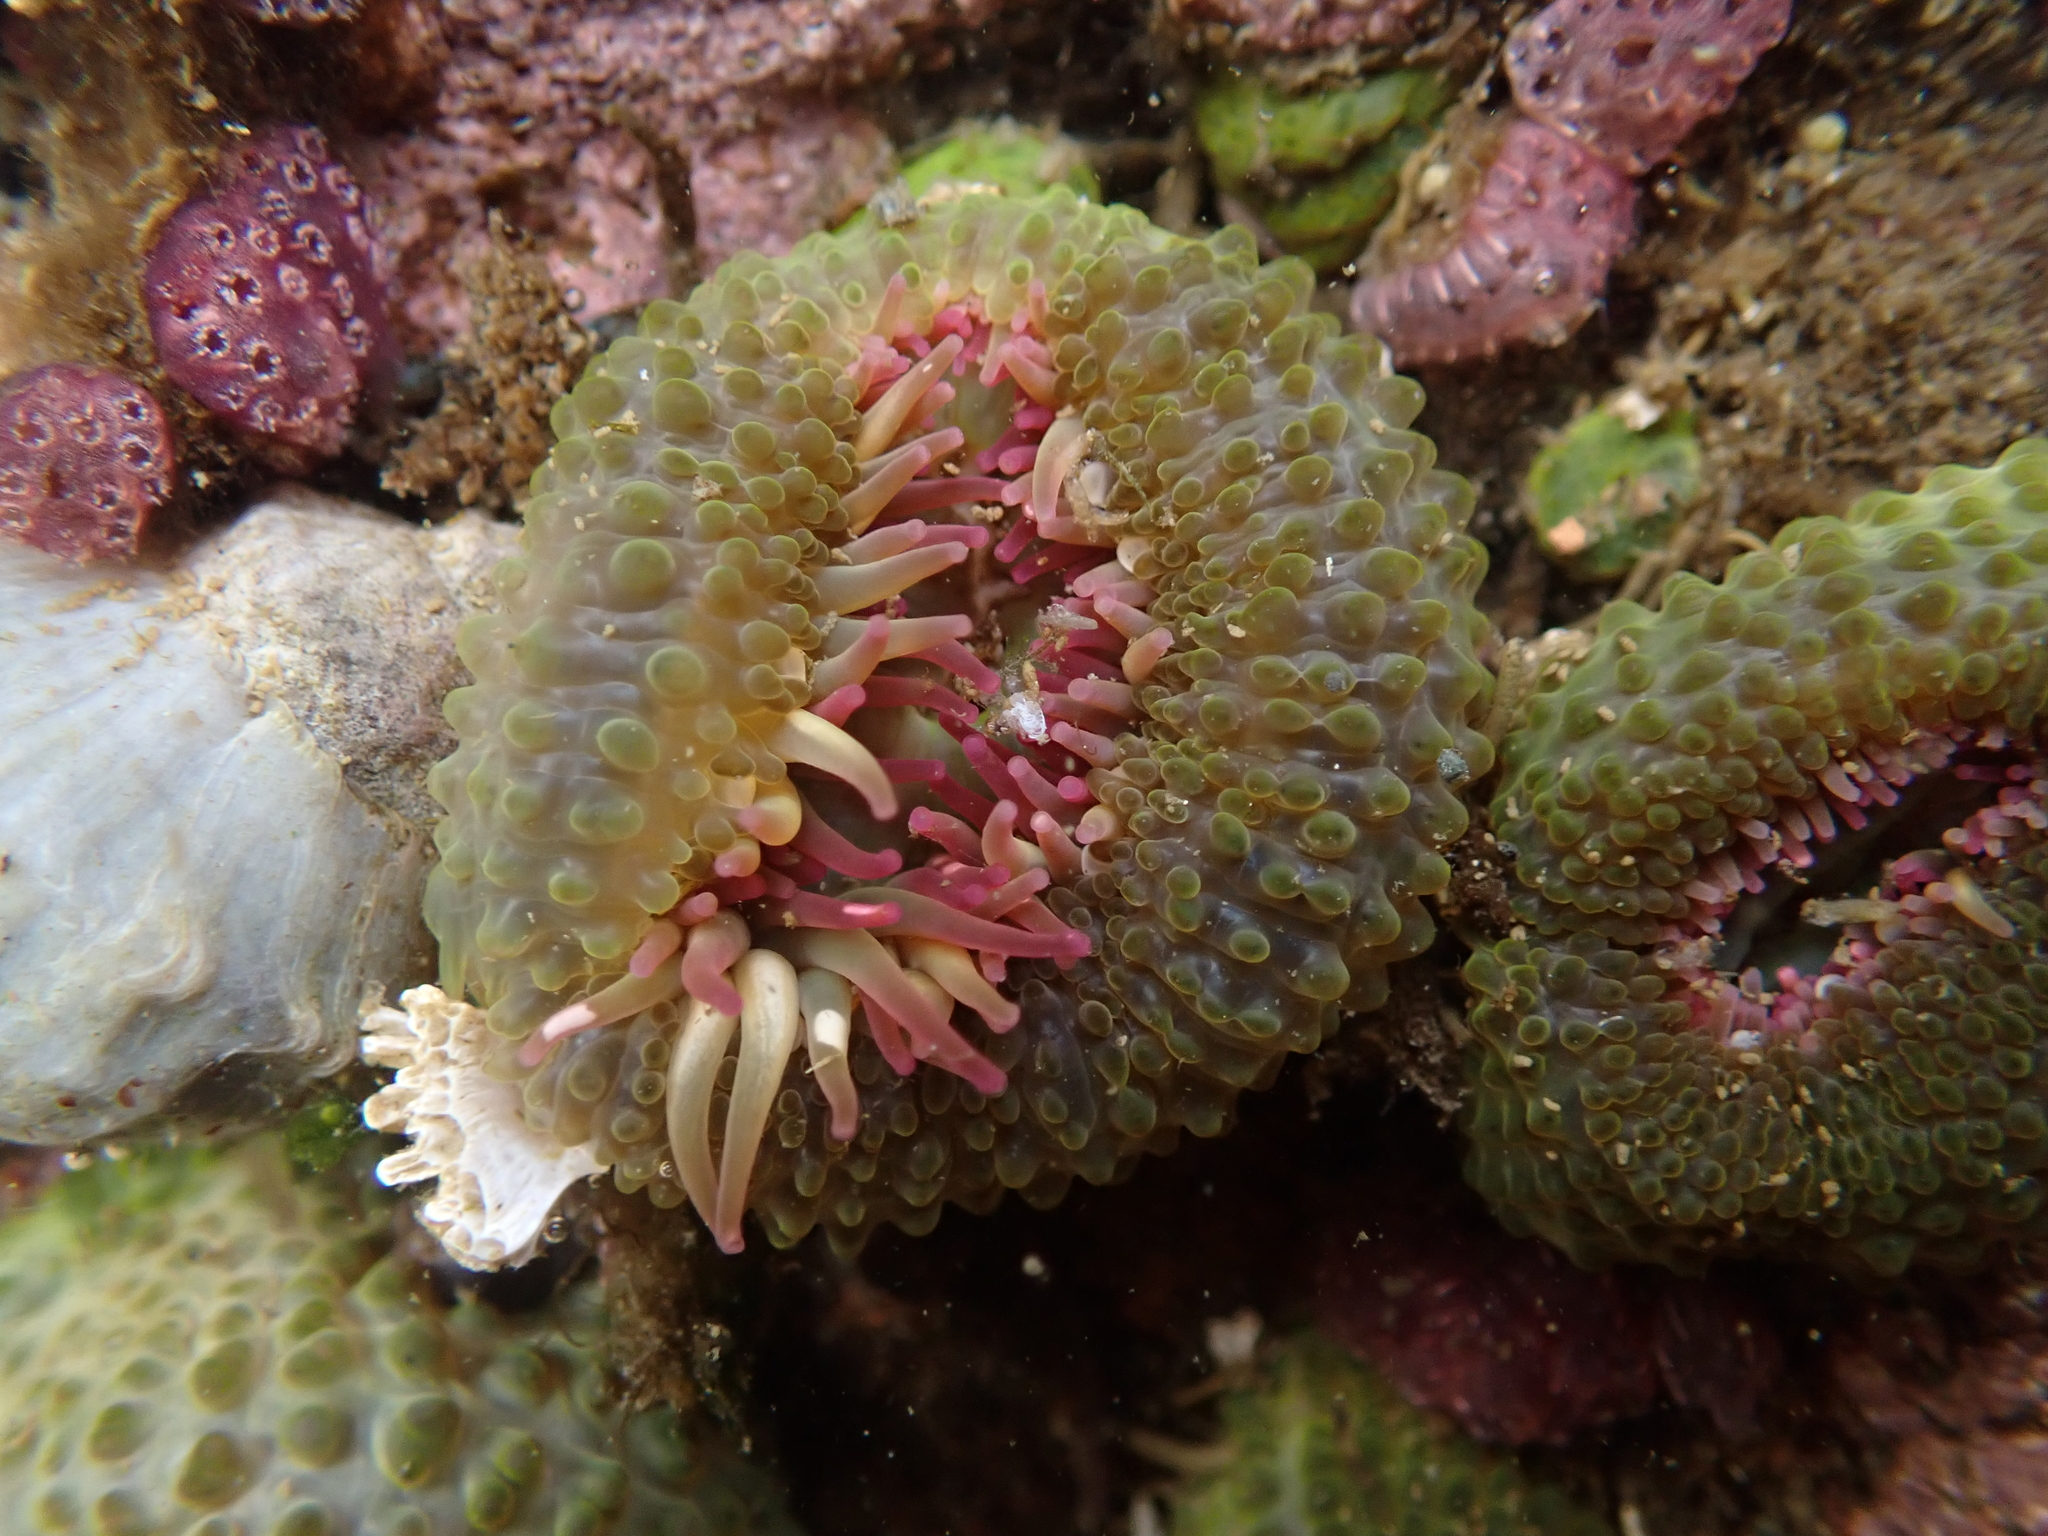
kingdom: Animalia
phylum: Cnidaria
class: Anthozoa
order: Actiniaria
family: Actiniidae
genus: Anthopleura
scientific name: Anthopleura elegantissima
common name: Clonal anemone
